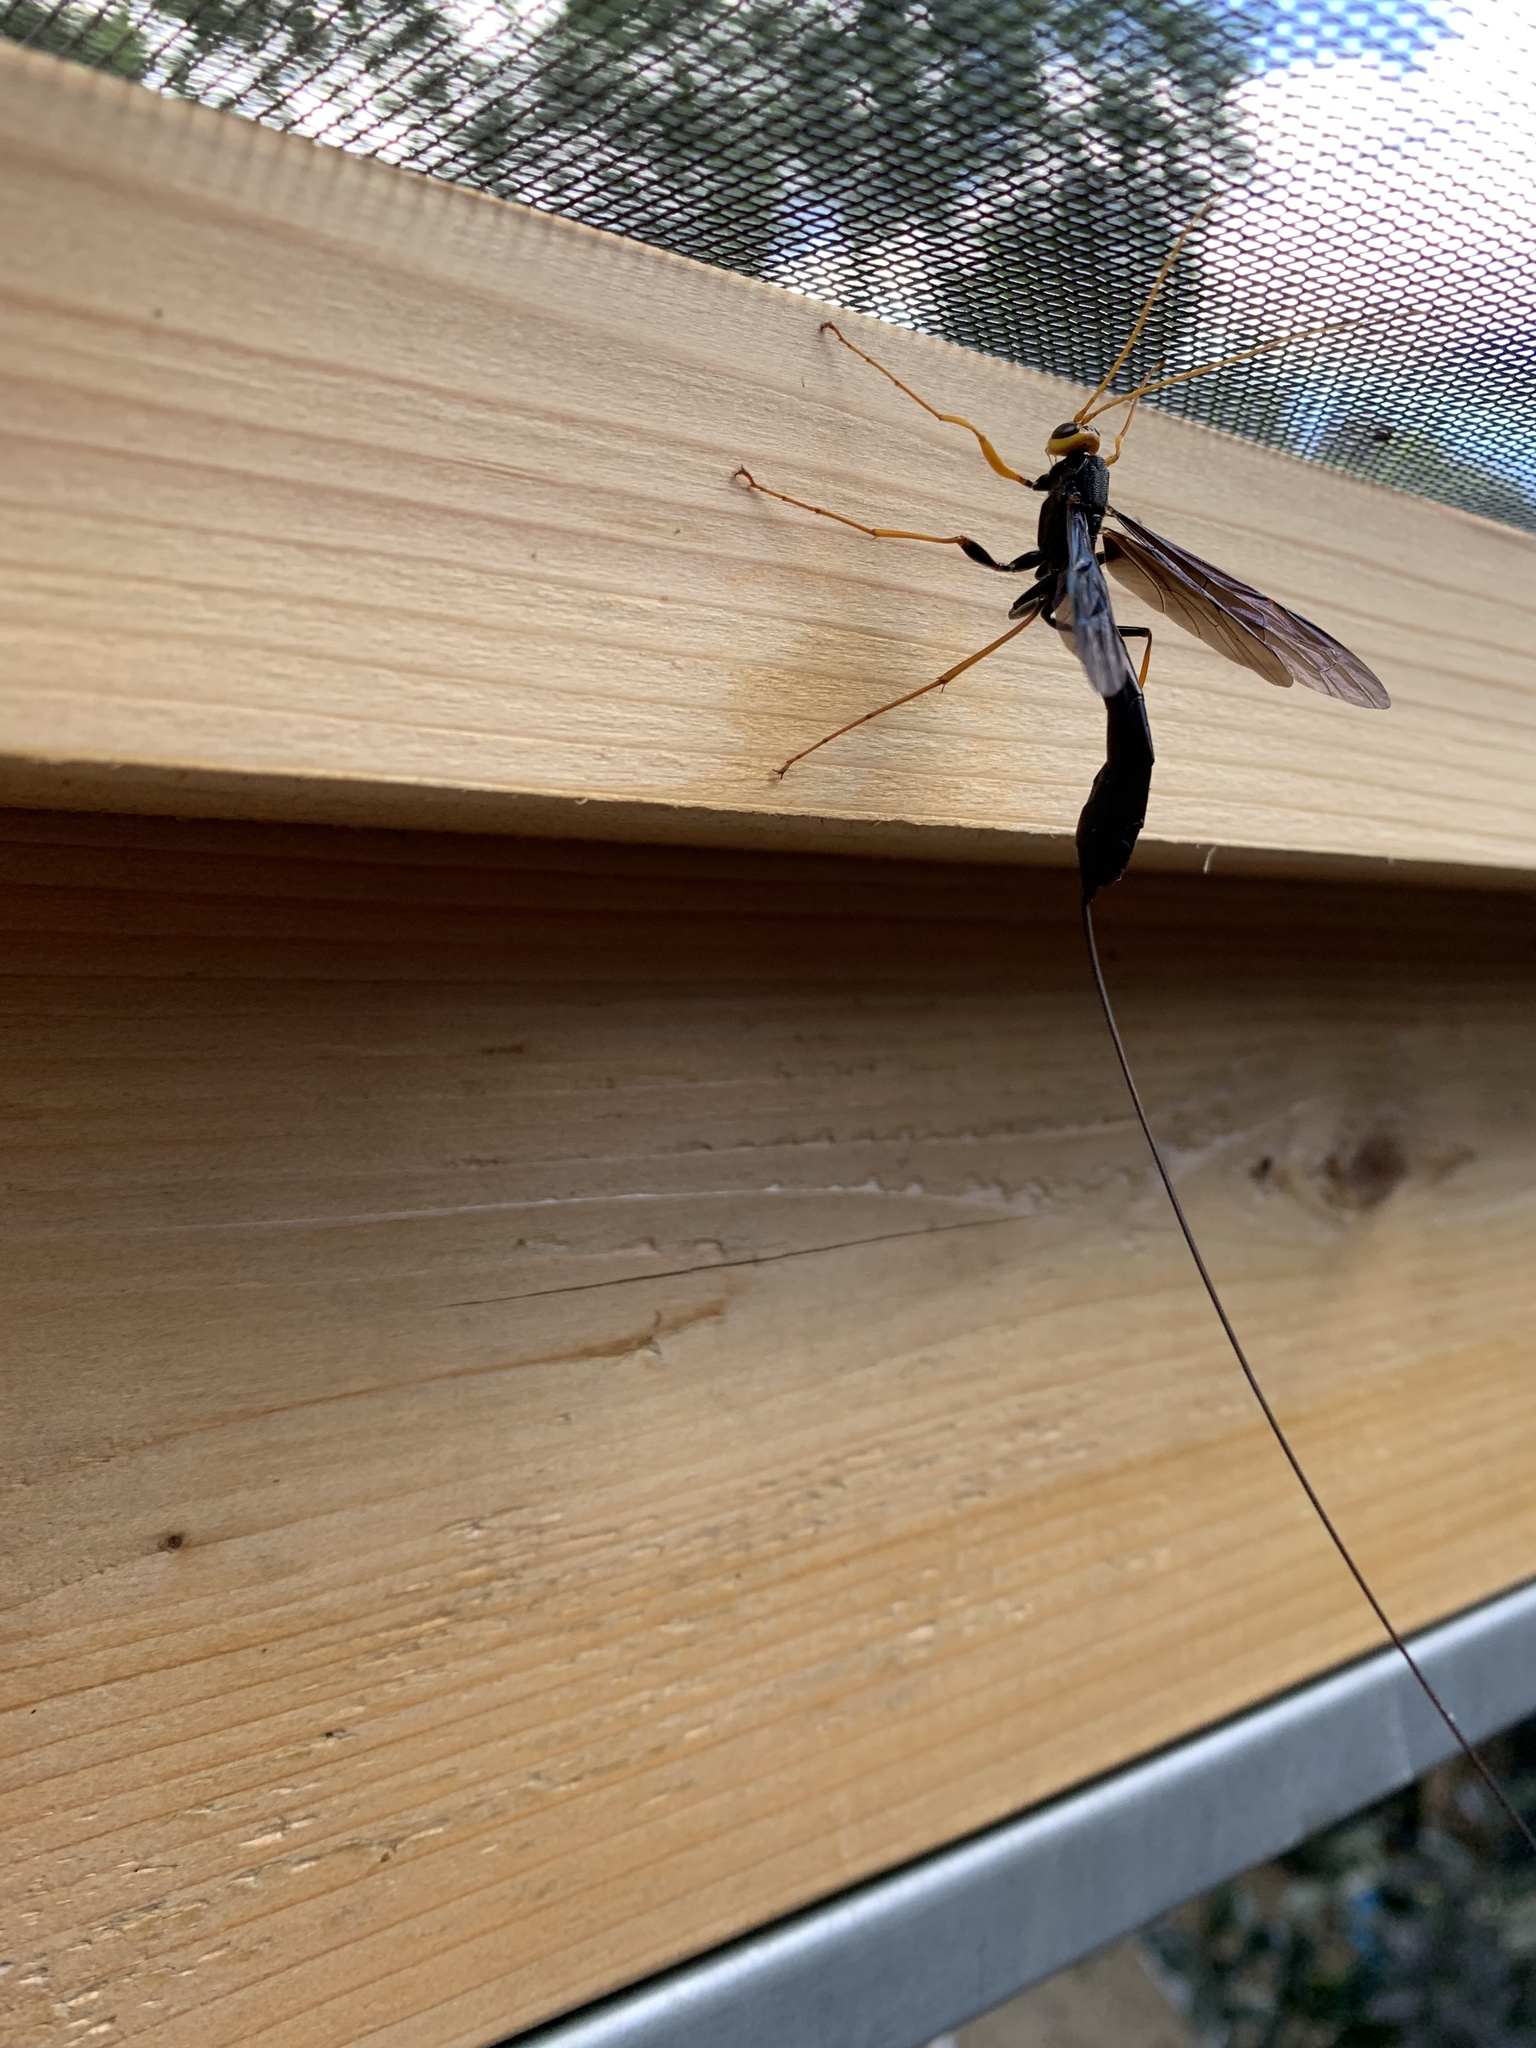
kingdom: Animalia
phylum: Arthropoda
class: Insecta
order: Hymenoptera
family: Ichneumonidae
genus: Megarhyssa
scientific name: Megarhyssa atrata
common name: Black giant ichneumonid wasp
